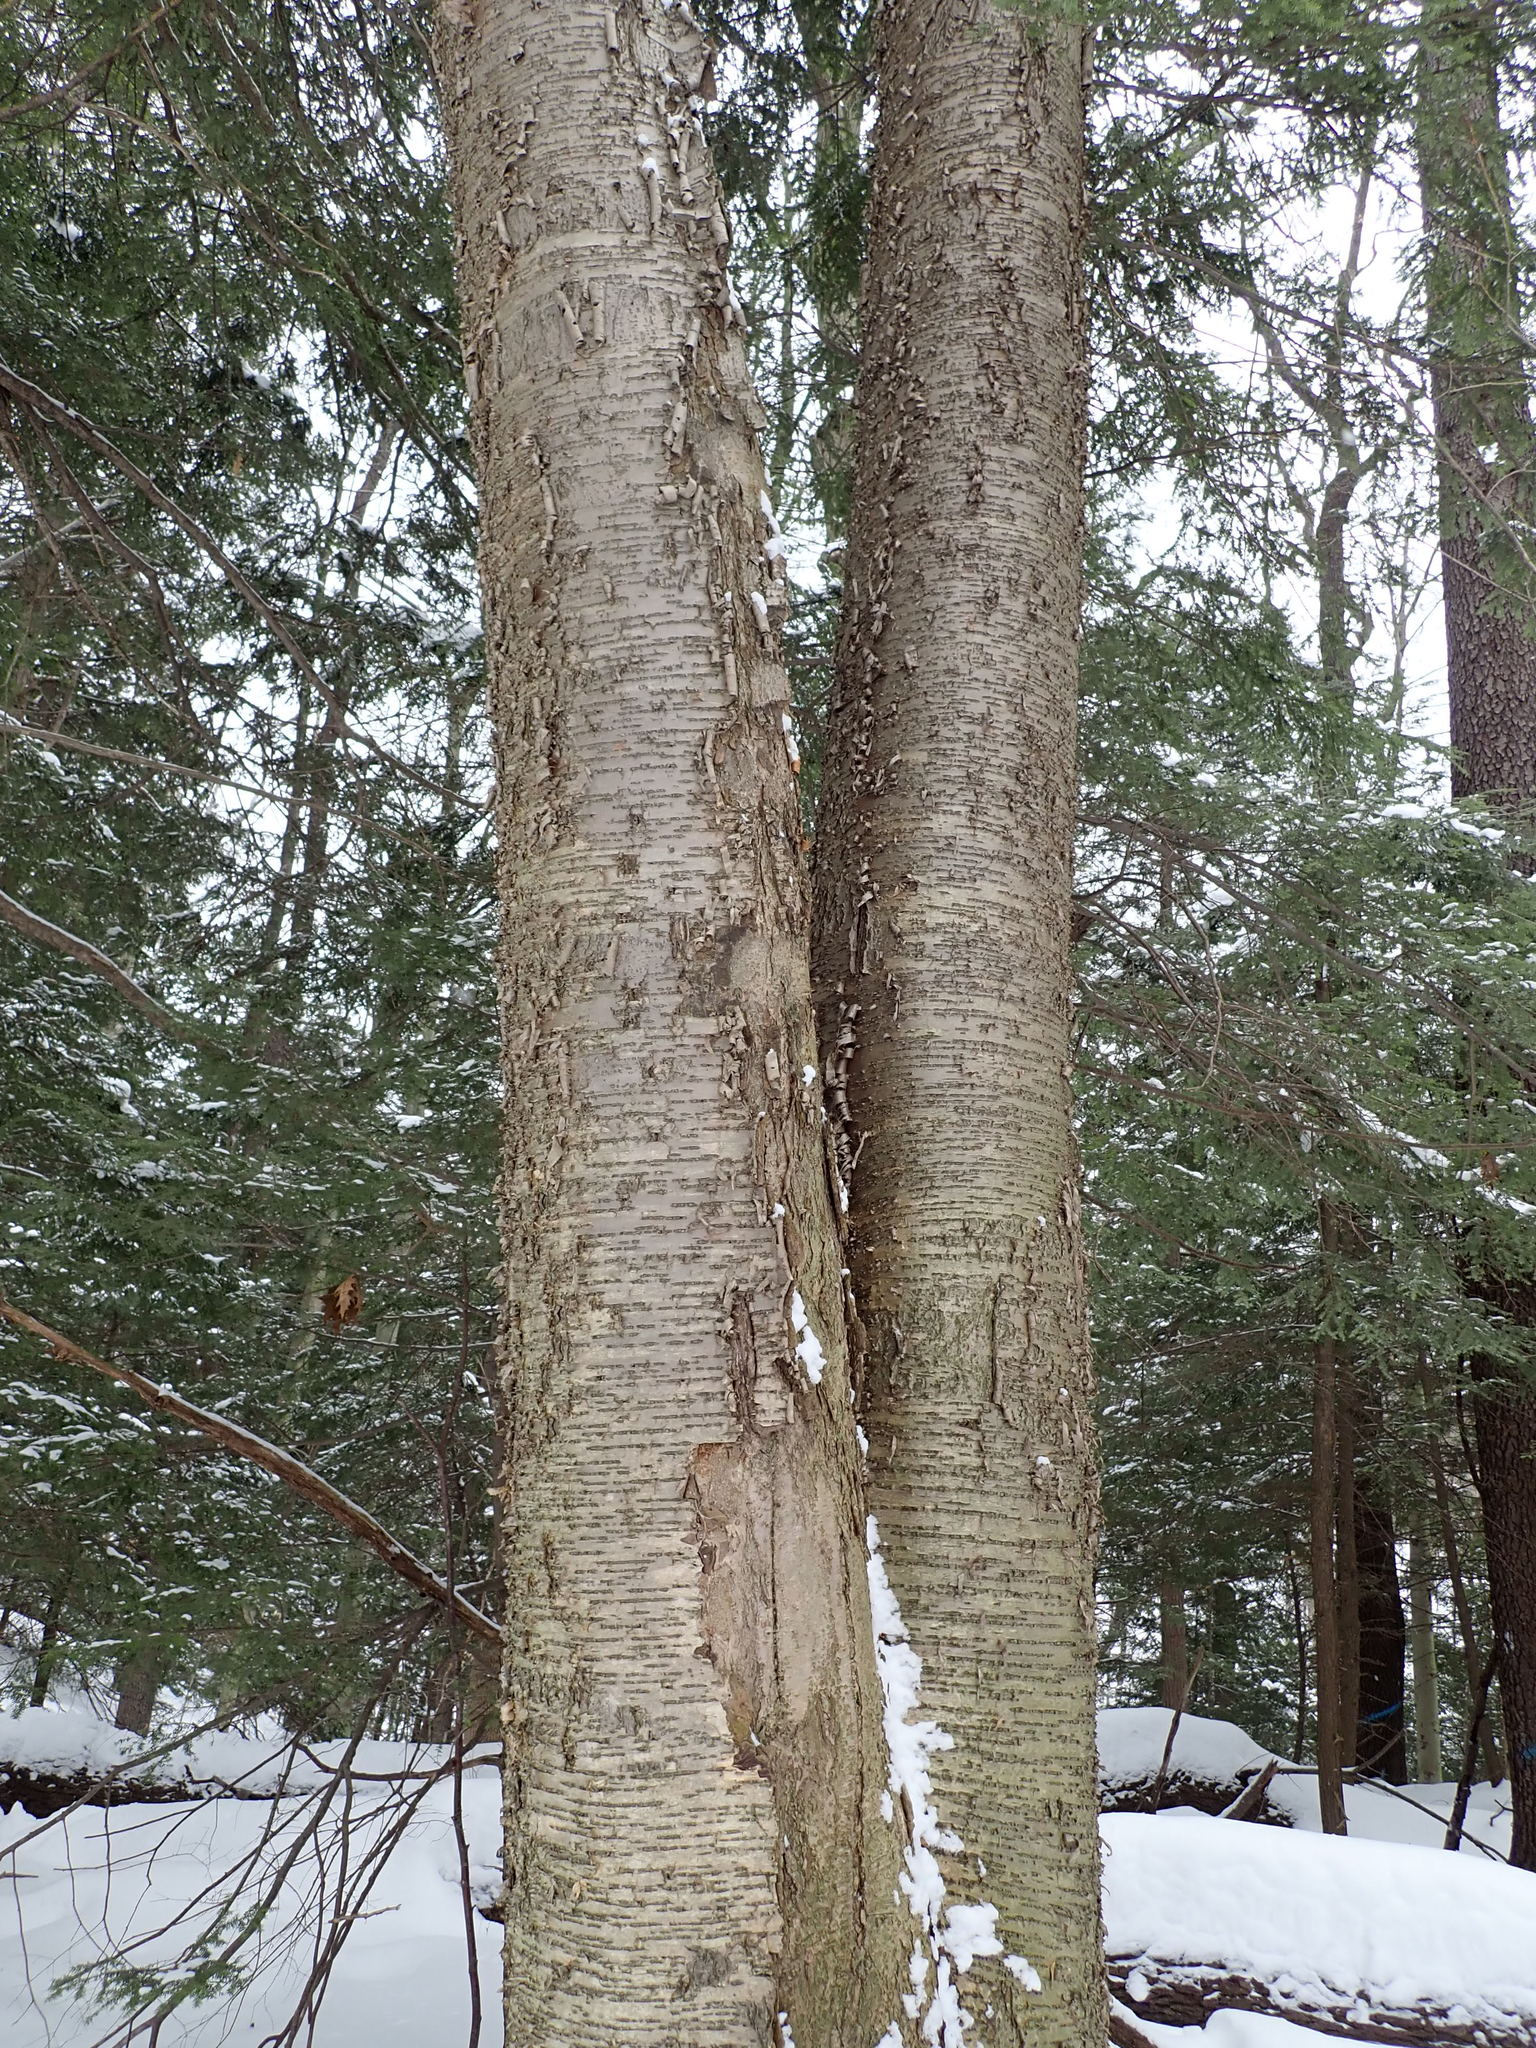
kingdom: Plantae
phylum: Tracheophyta
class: Magnoliopsida
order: Fagales
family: Betulaceae
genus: Betula
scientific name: Betula alleghaniensis
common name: Yellow birch
